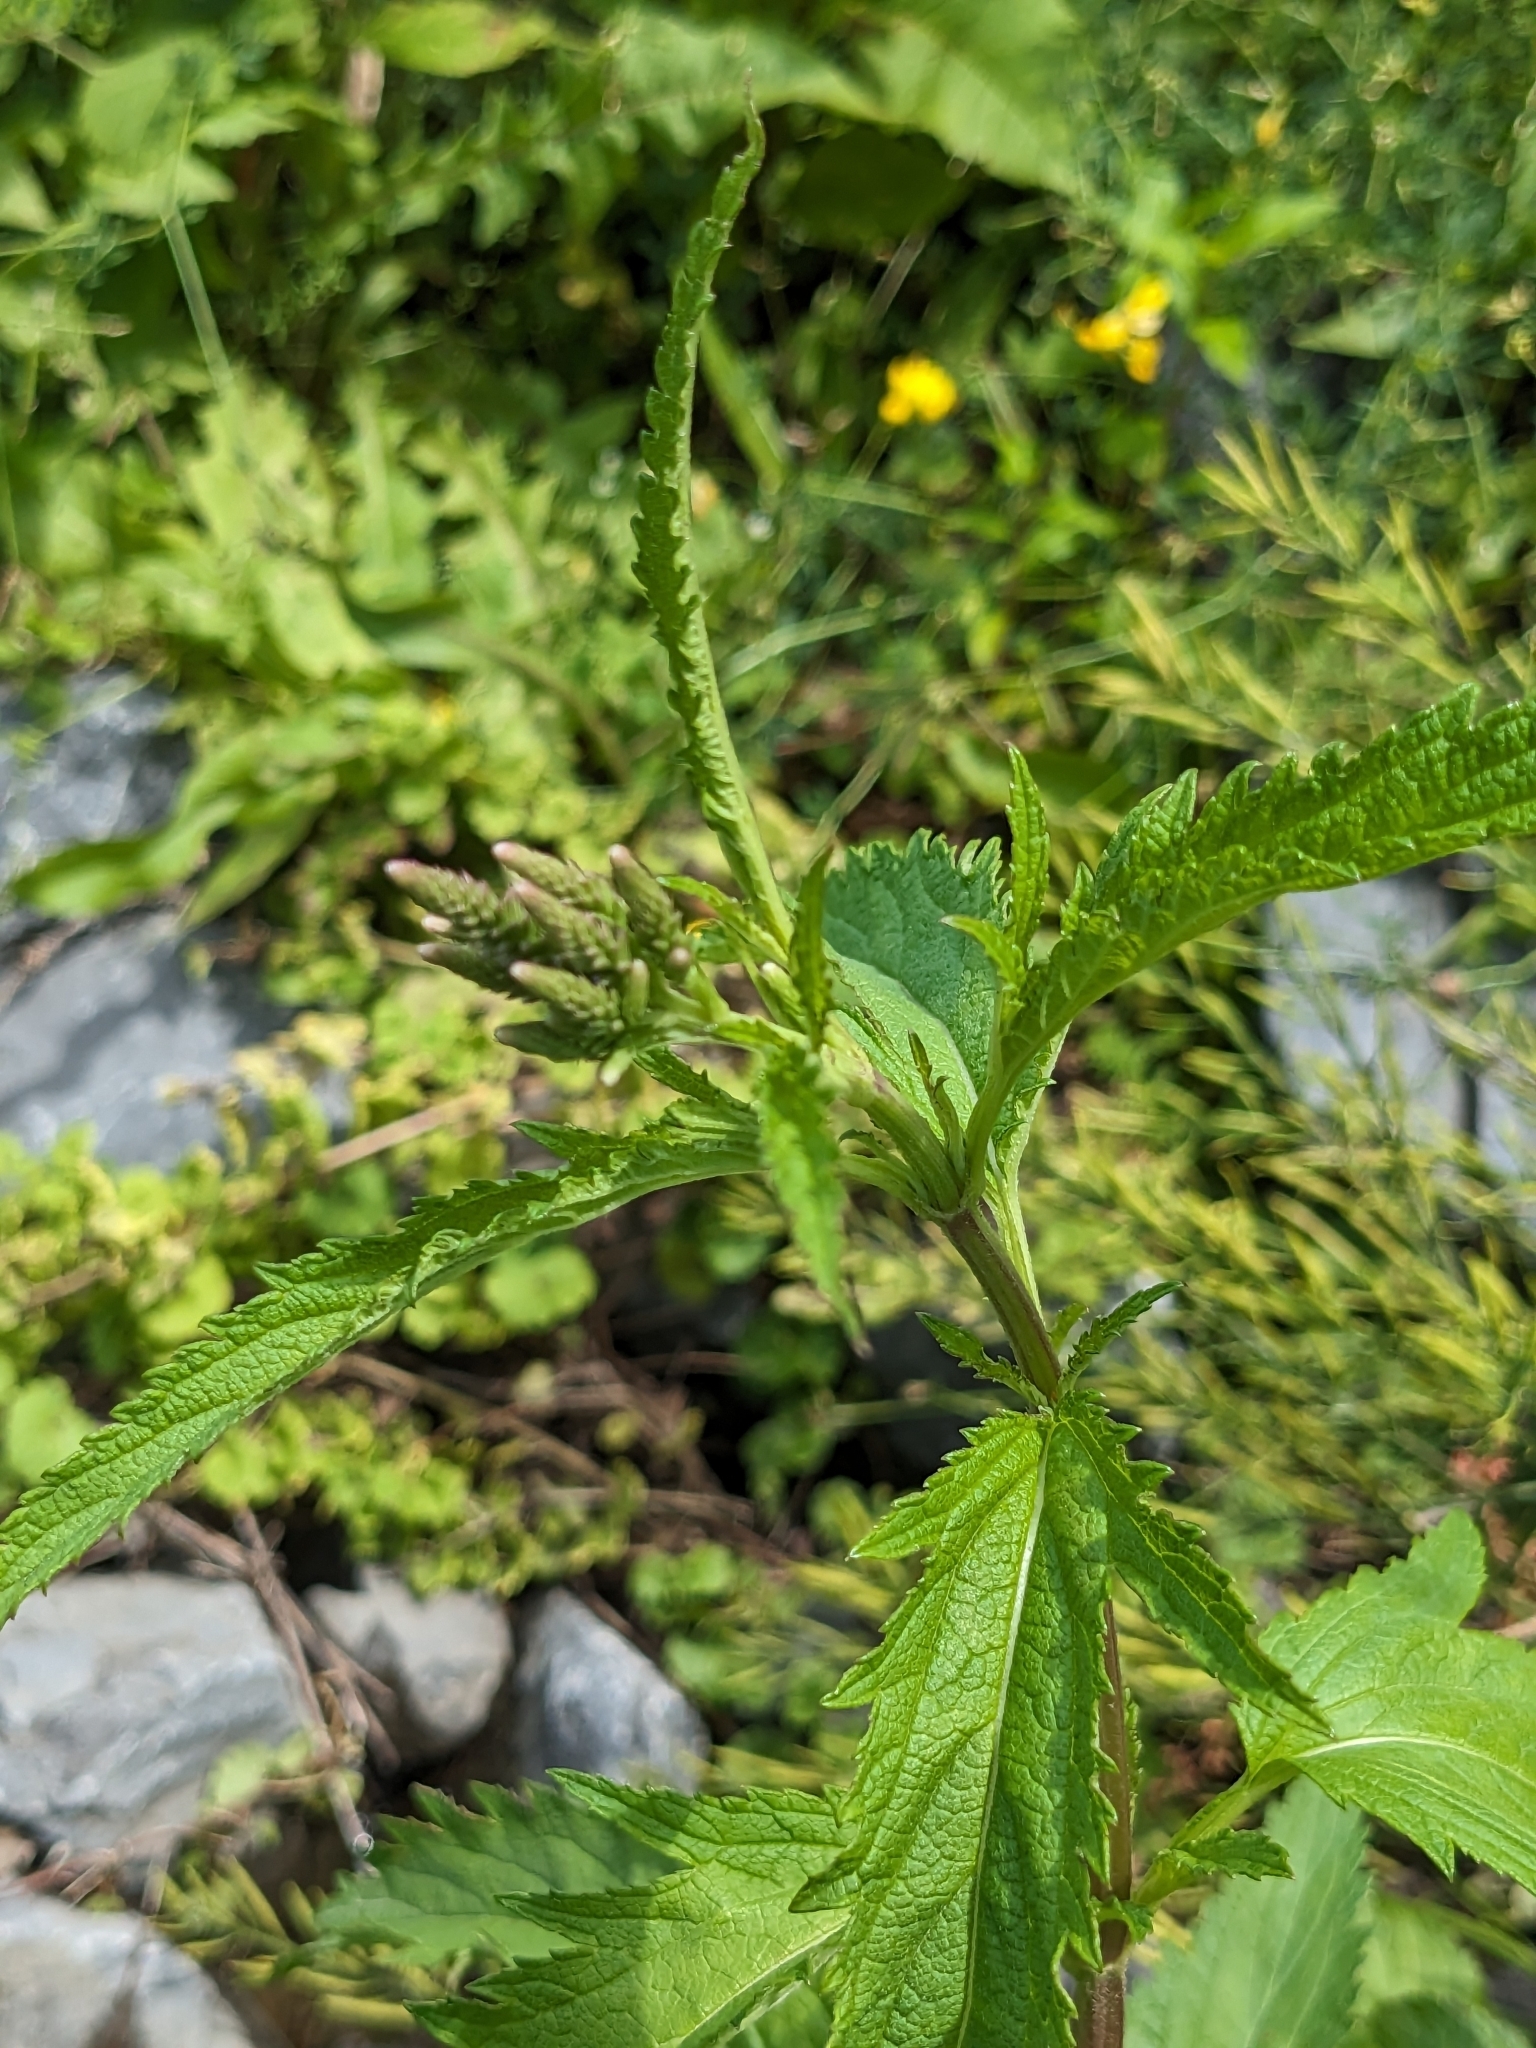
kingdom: Plantae
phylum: Tracheophyta
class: Magnoliopsida
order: Lamiales
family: Verbenaceae
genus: Verbena
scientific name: Verbena hastata
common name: American blue vervain
